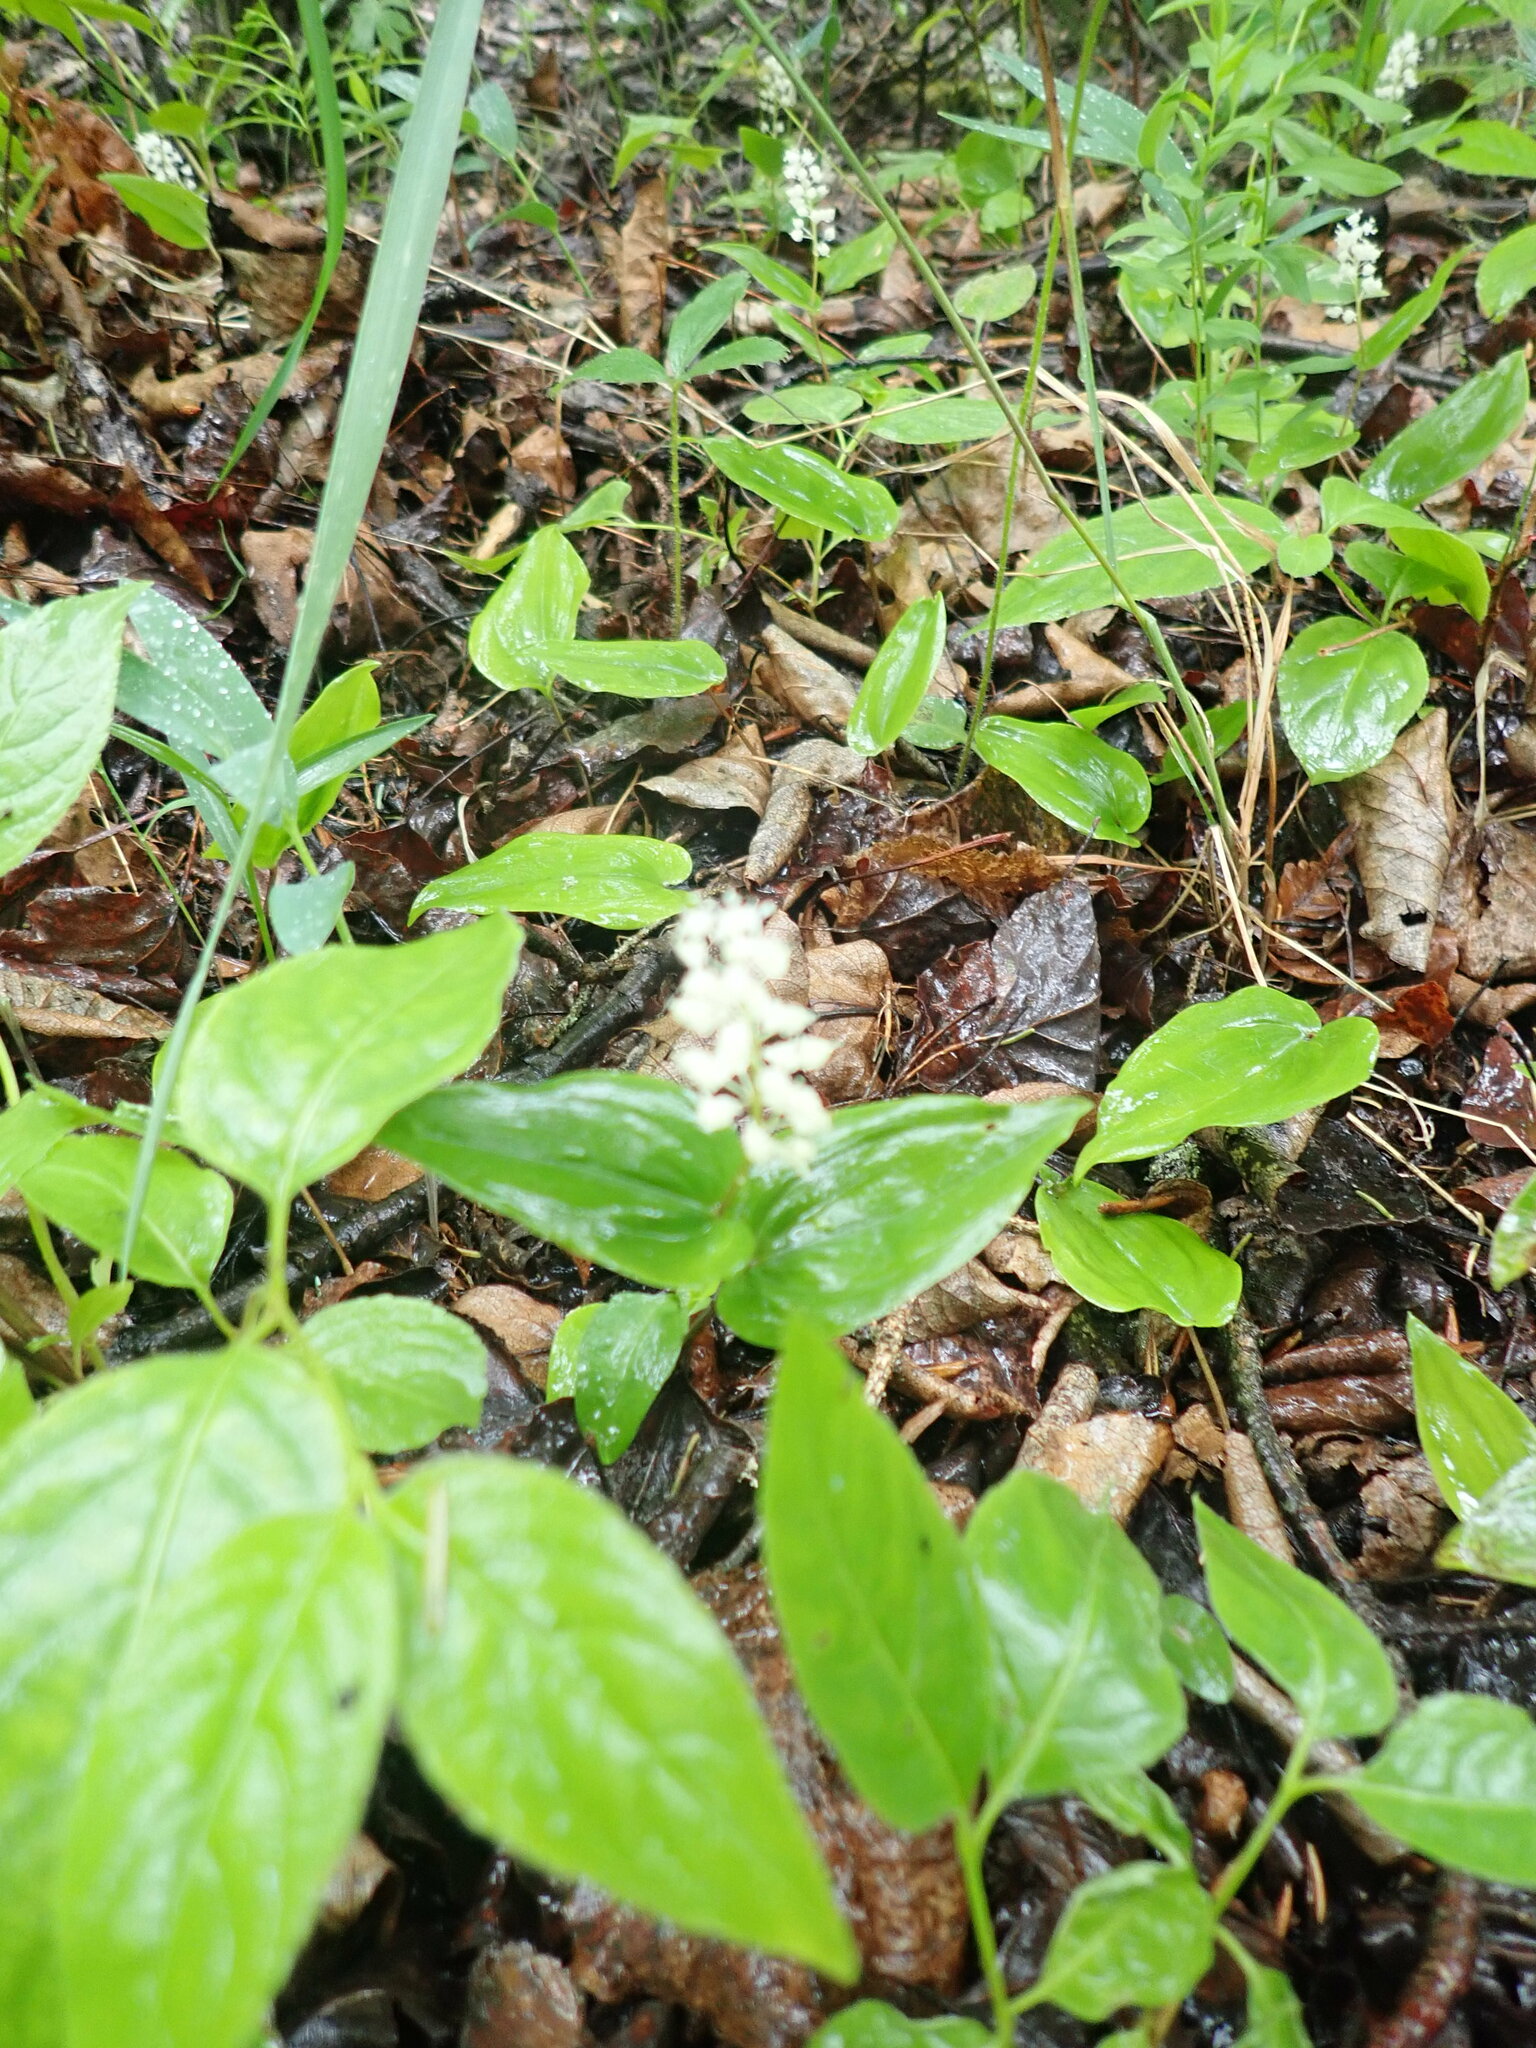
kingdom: Plantae
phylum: Tracheophyta
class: Liliopsida
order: Asparagales
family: Asparagaceae
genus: Maianthemum
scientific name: Maianthemum canadense
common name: False lily-of-the-valley
